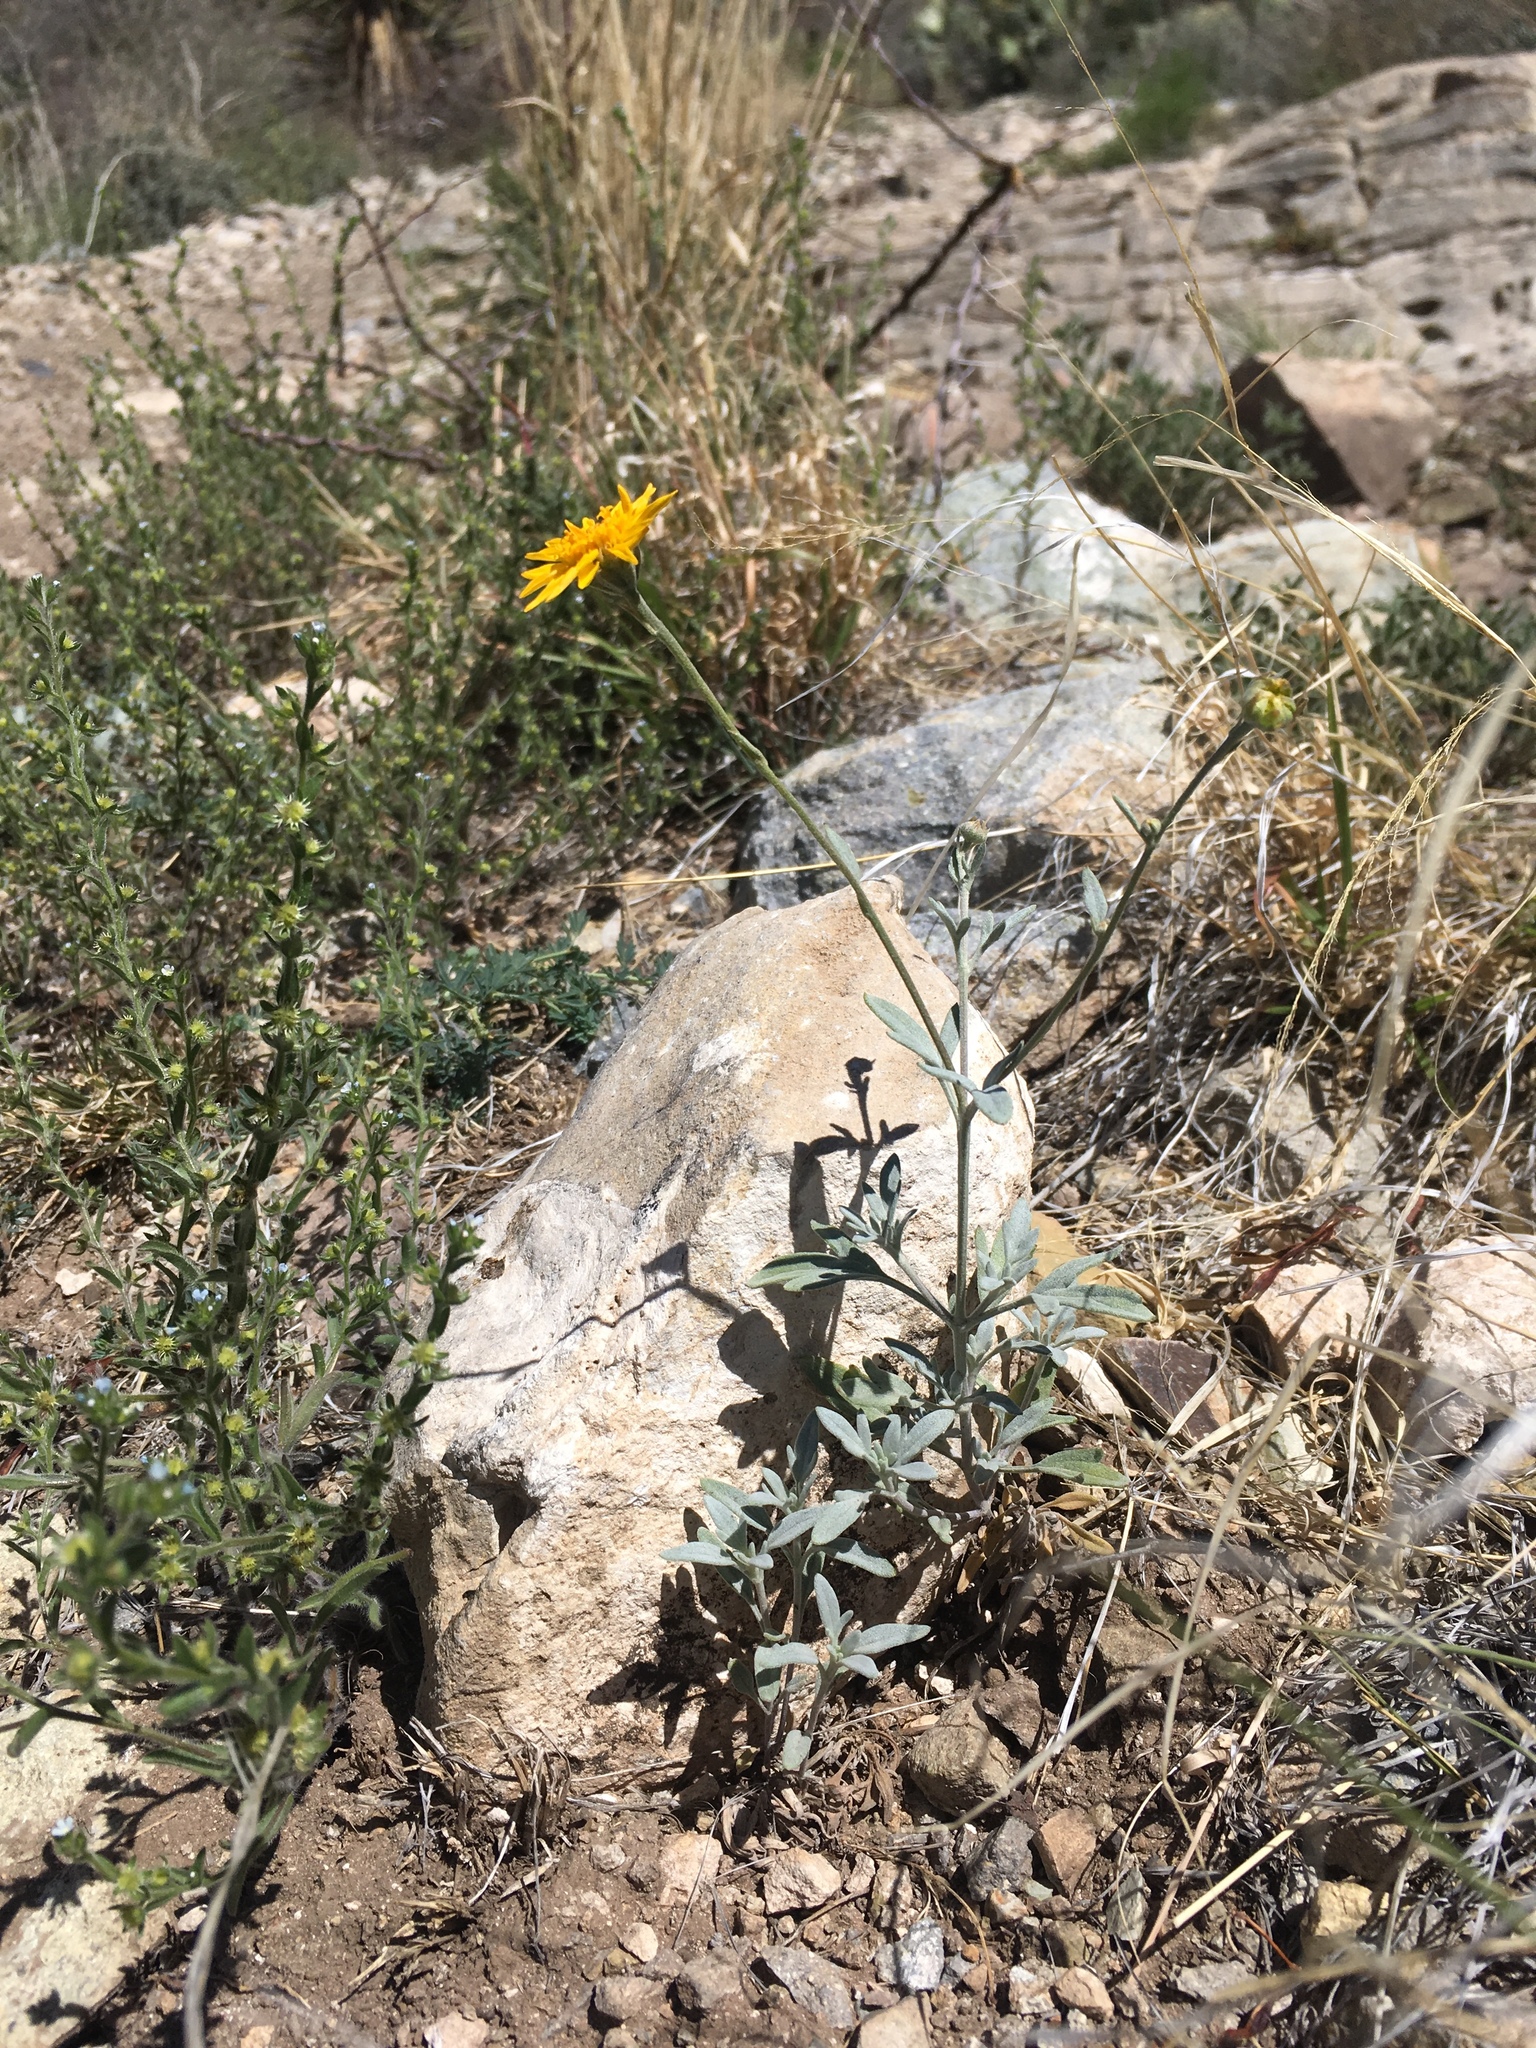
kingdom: Plantae
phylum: Tracheophyta
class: Magnoliopsida
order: Asterales
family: Asteraceae
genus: Picradeniopsis
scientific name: Picradeniopsis absinthifolia
